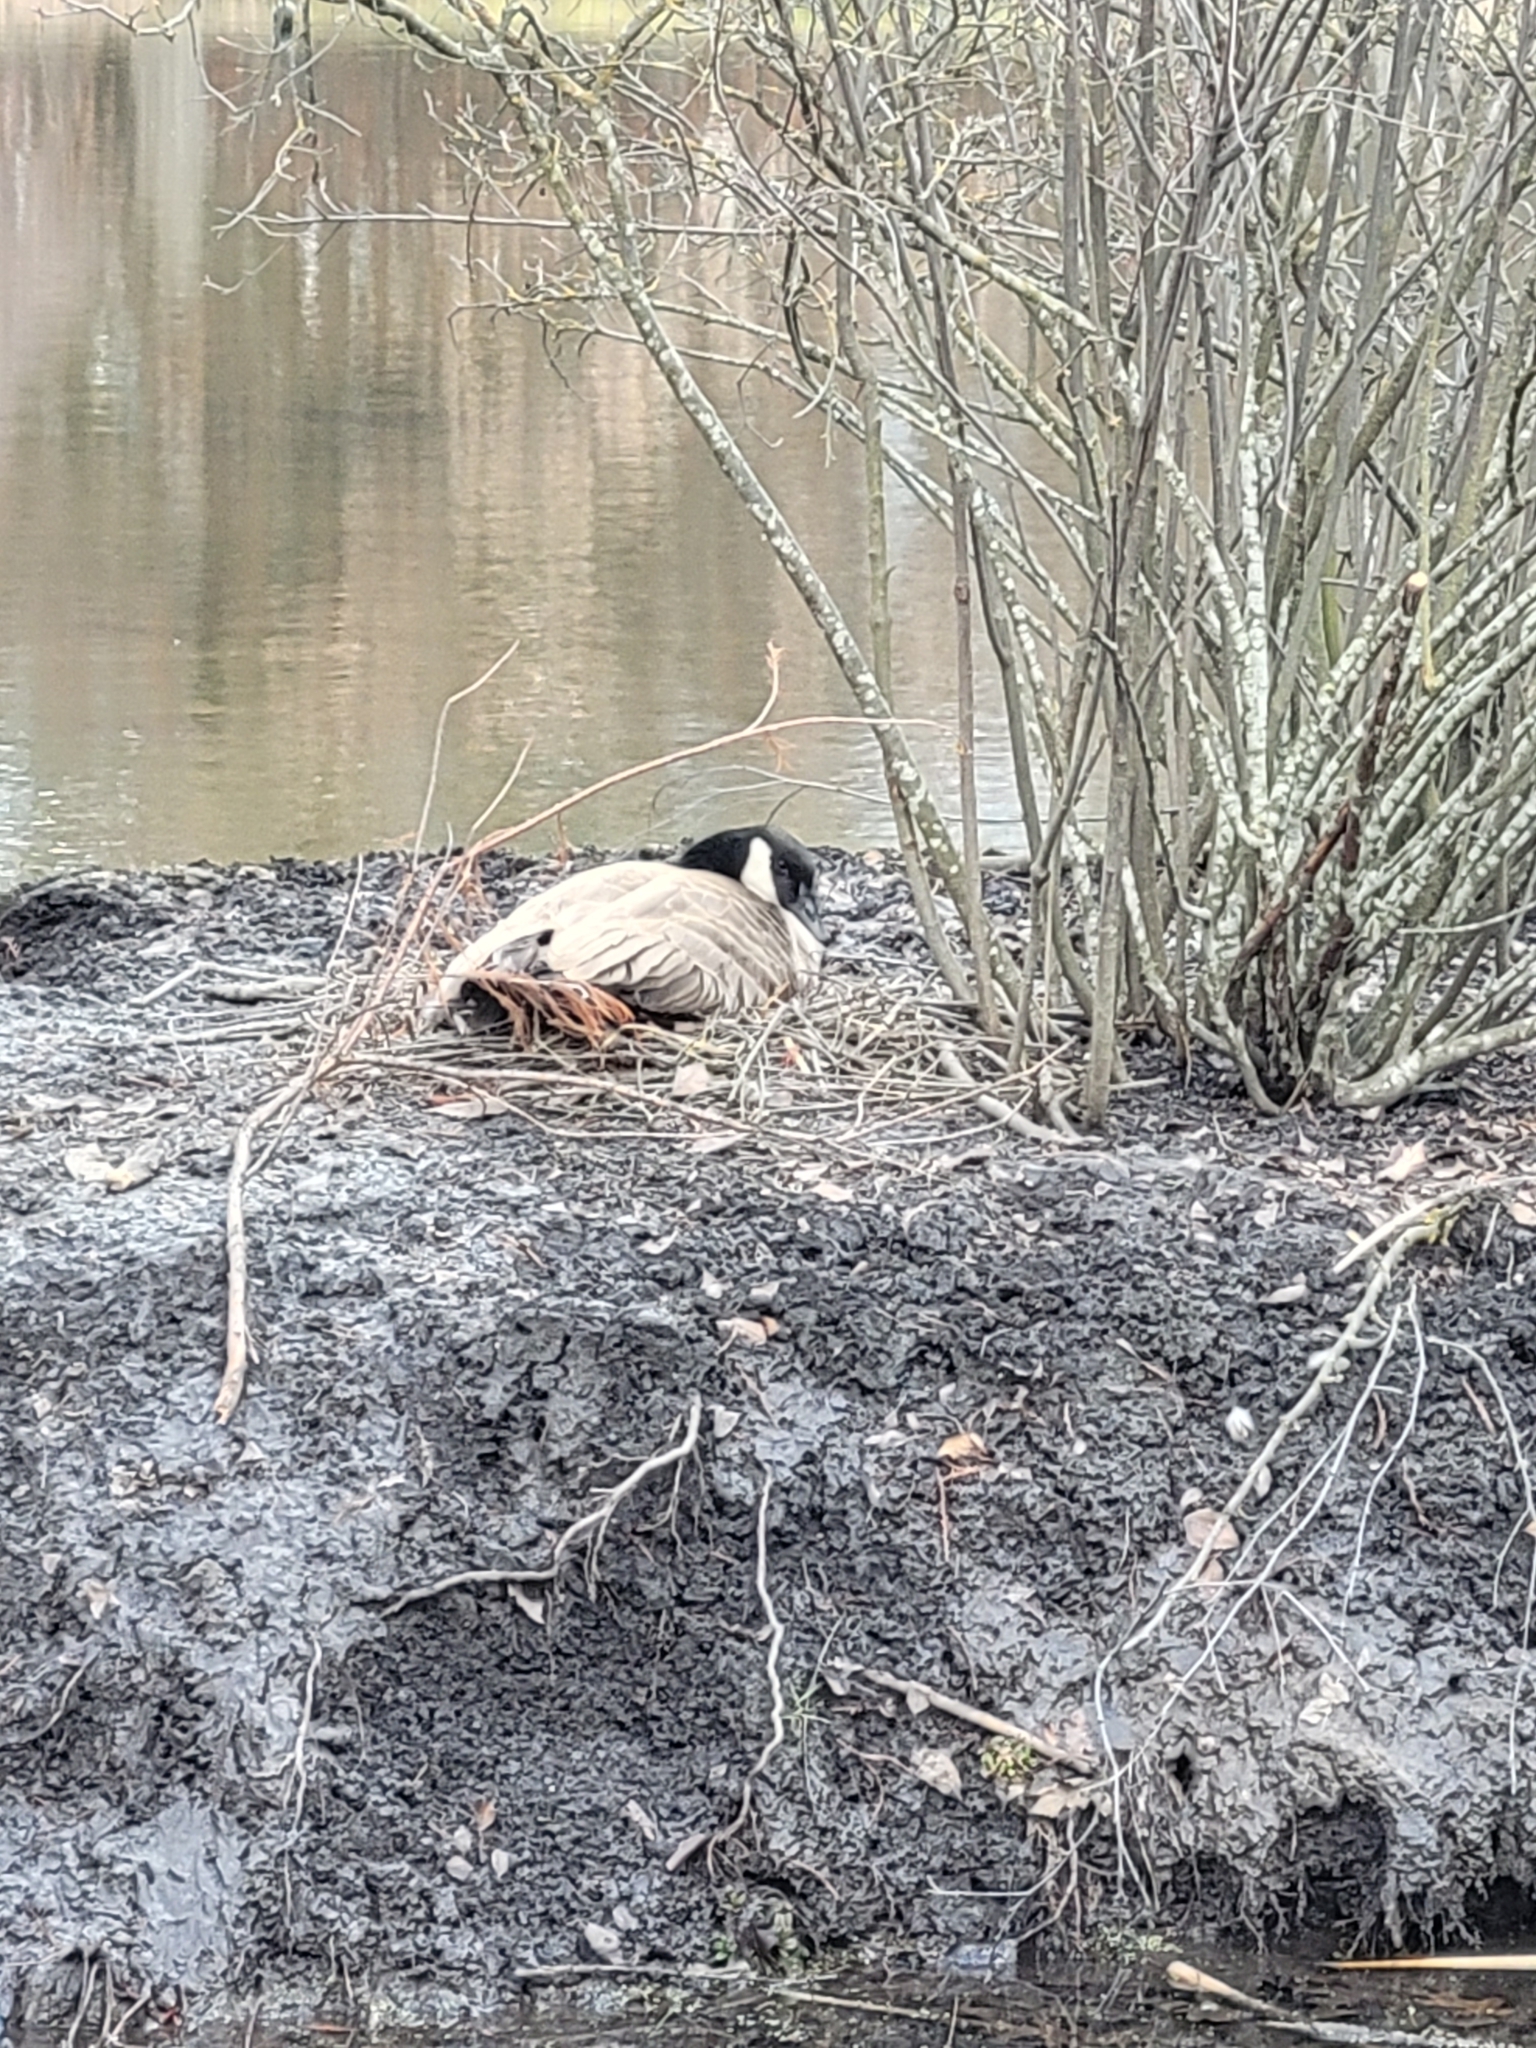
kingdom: Animalia
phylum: Chordata
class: Aves
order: Anseriformes
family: Anatidae
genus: Branta
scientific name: Branta canadensis
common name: Canada goose
